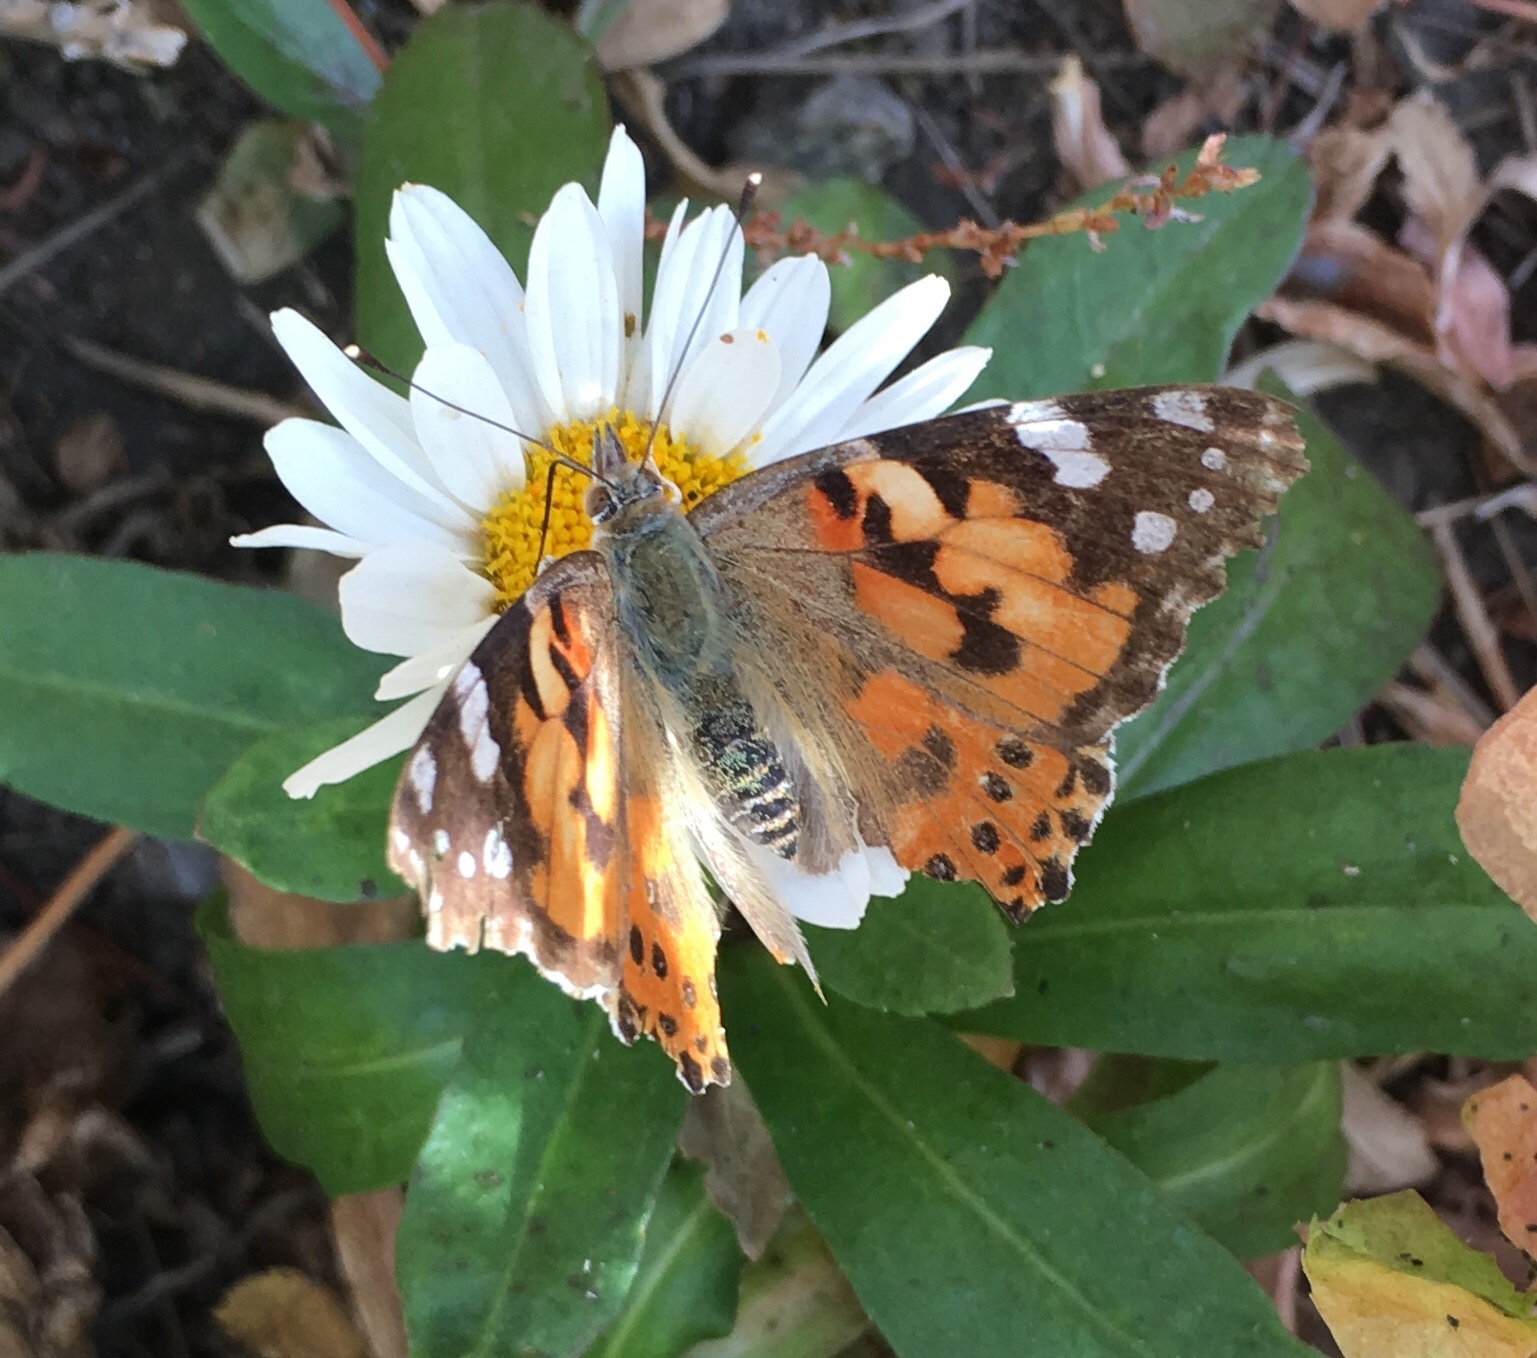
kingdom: Animalia
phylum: Arthropoda
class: Insecta
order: Lepidoptera
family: Nymphalidae
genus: Vanessa
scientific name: Vanessa cardui
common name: Painted lady
